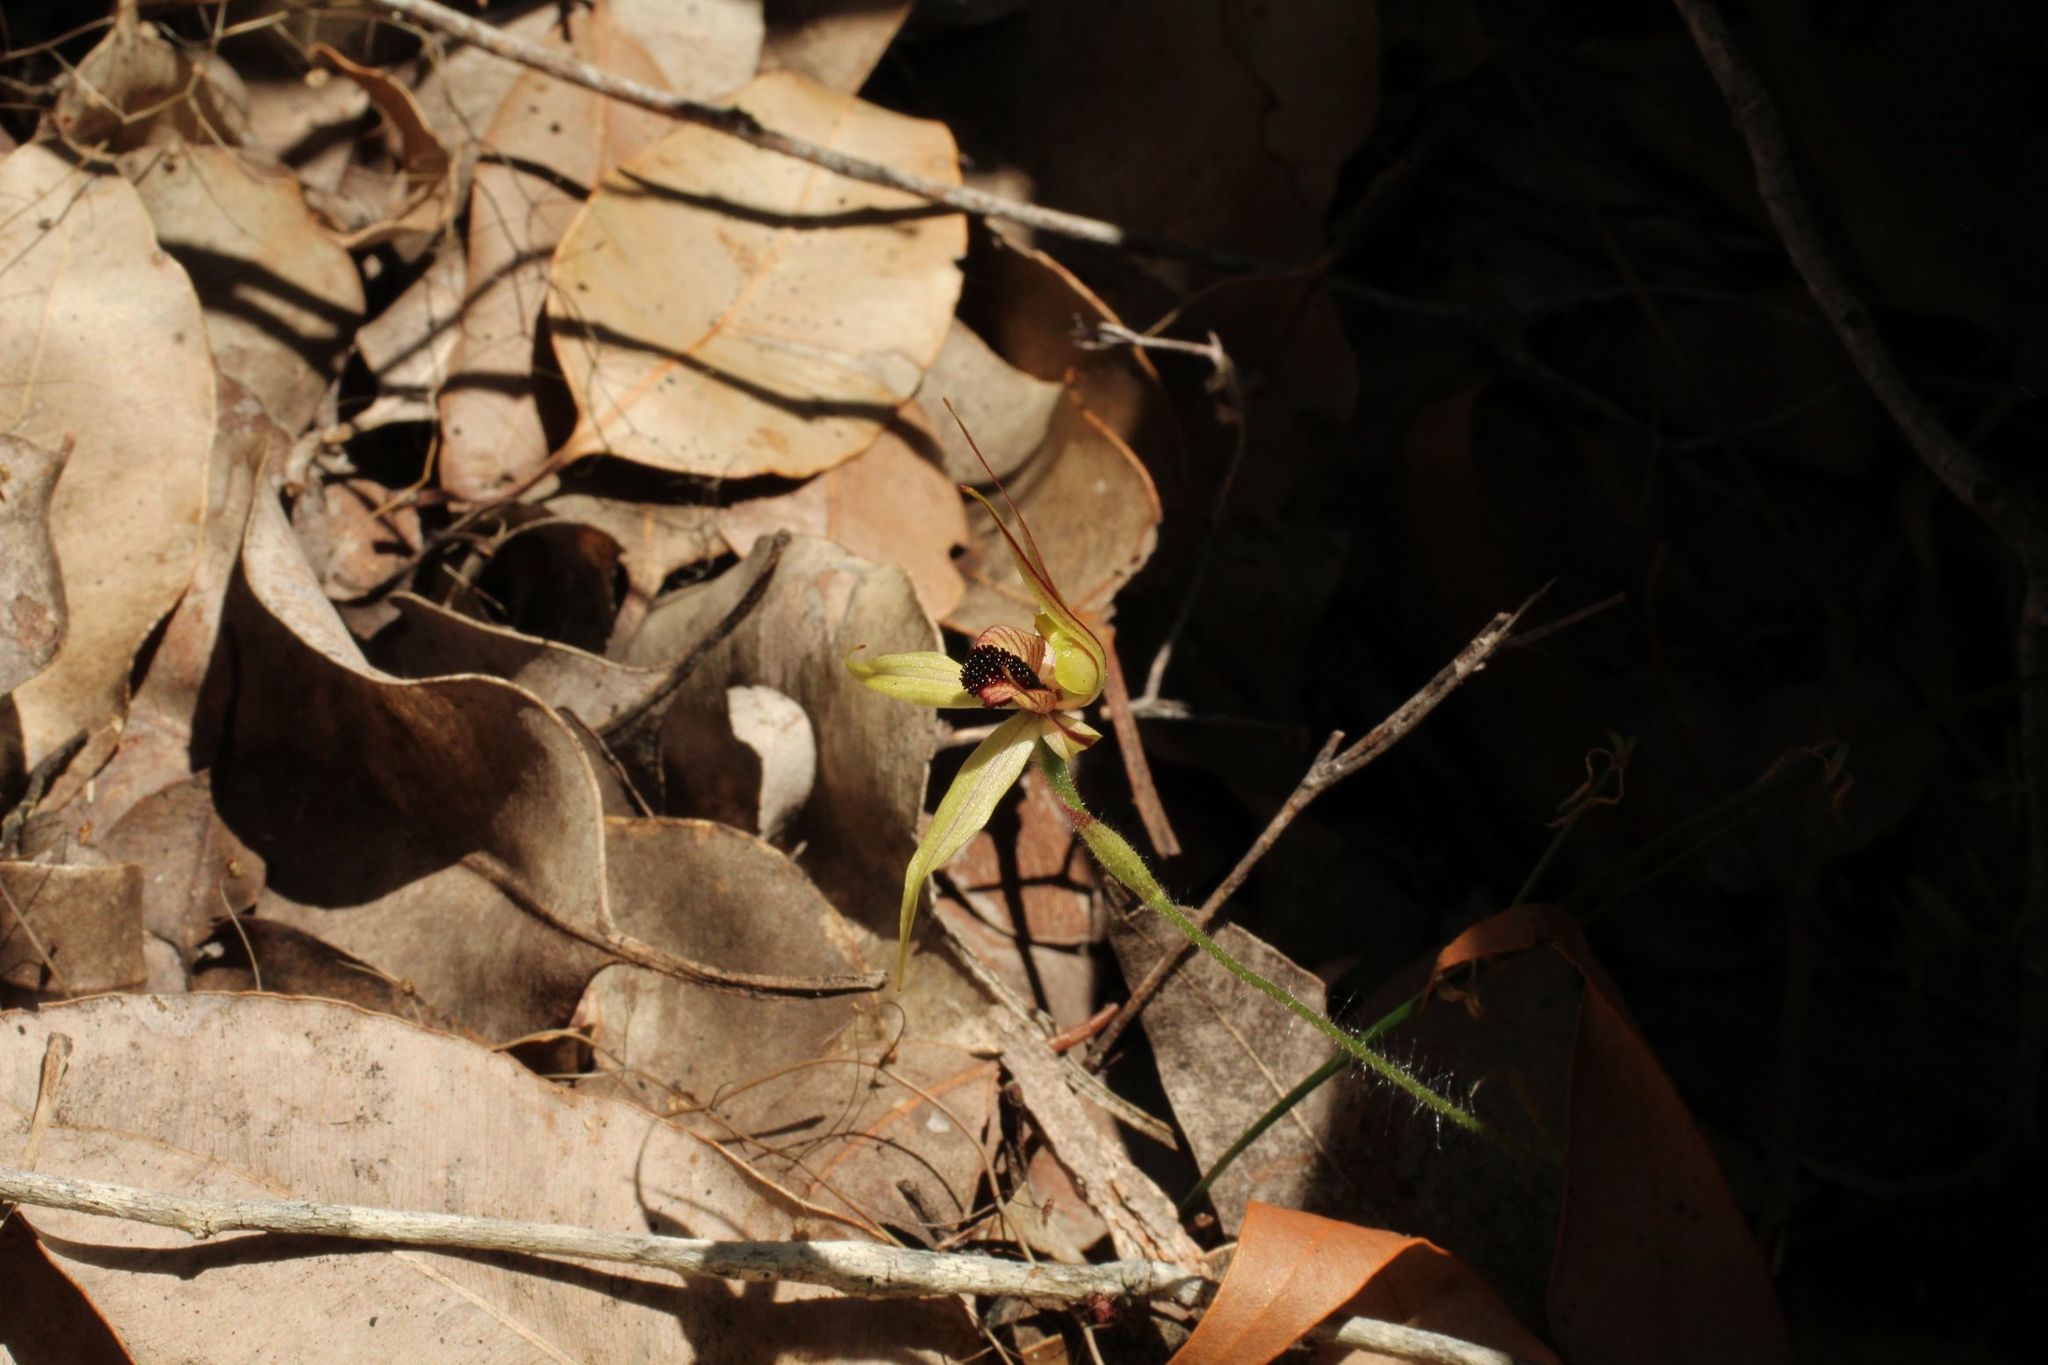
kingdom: Plantae
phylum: Tracheophyta
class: Liliopsida
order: Asparagales
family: Orchidaceae
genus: Caladenia
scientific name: Caladenia macrostylis
